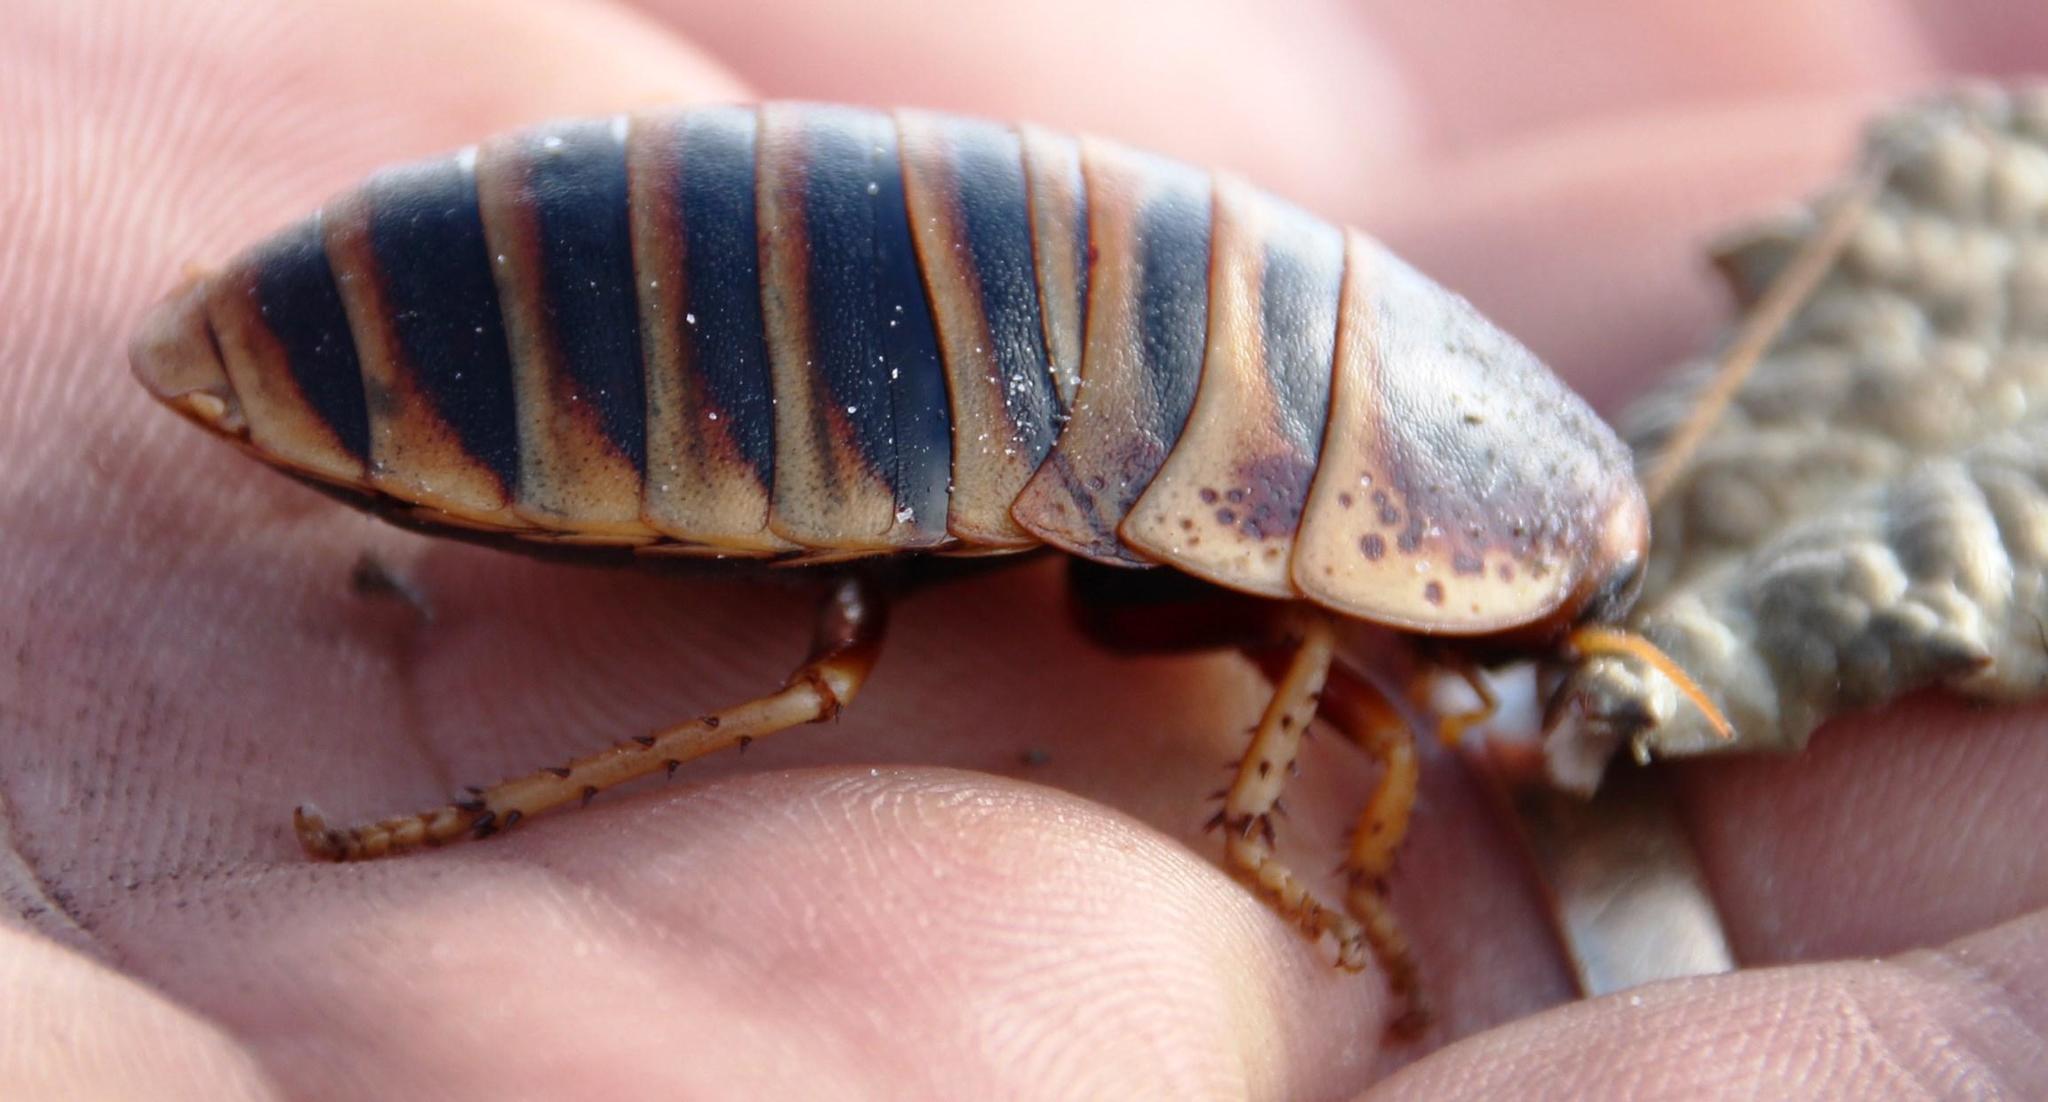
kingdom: Animalia
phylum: Arthropoda
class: Insecta
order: Blattodea
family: Blaberidae
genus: Aptera
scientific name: Aptera fusca
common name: Cape mountain cockroach
